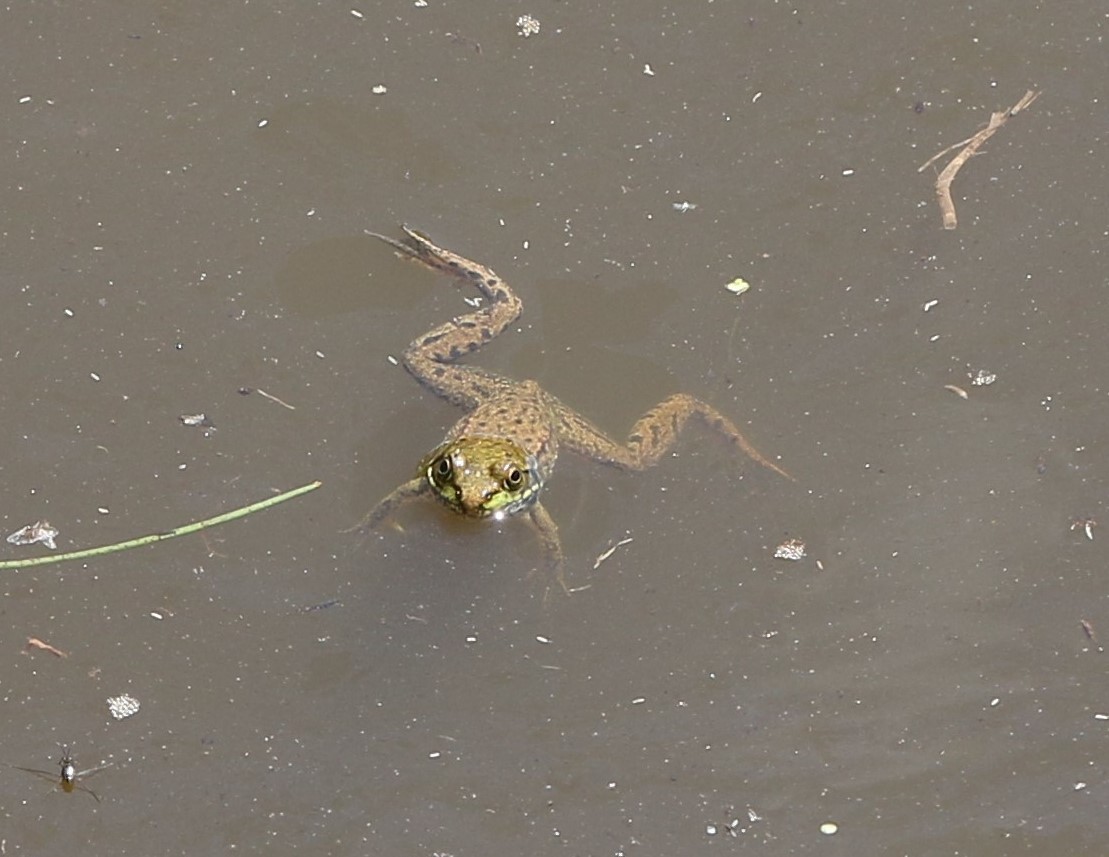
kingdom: Animalia
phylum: Chordata
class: Amphibia
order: Anura
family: Ranidae
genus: Lithobates
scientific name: Lithobates clamitans
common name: Green frog
